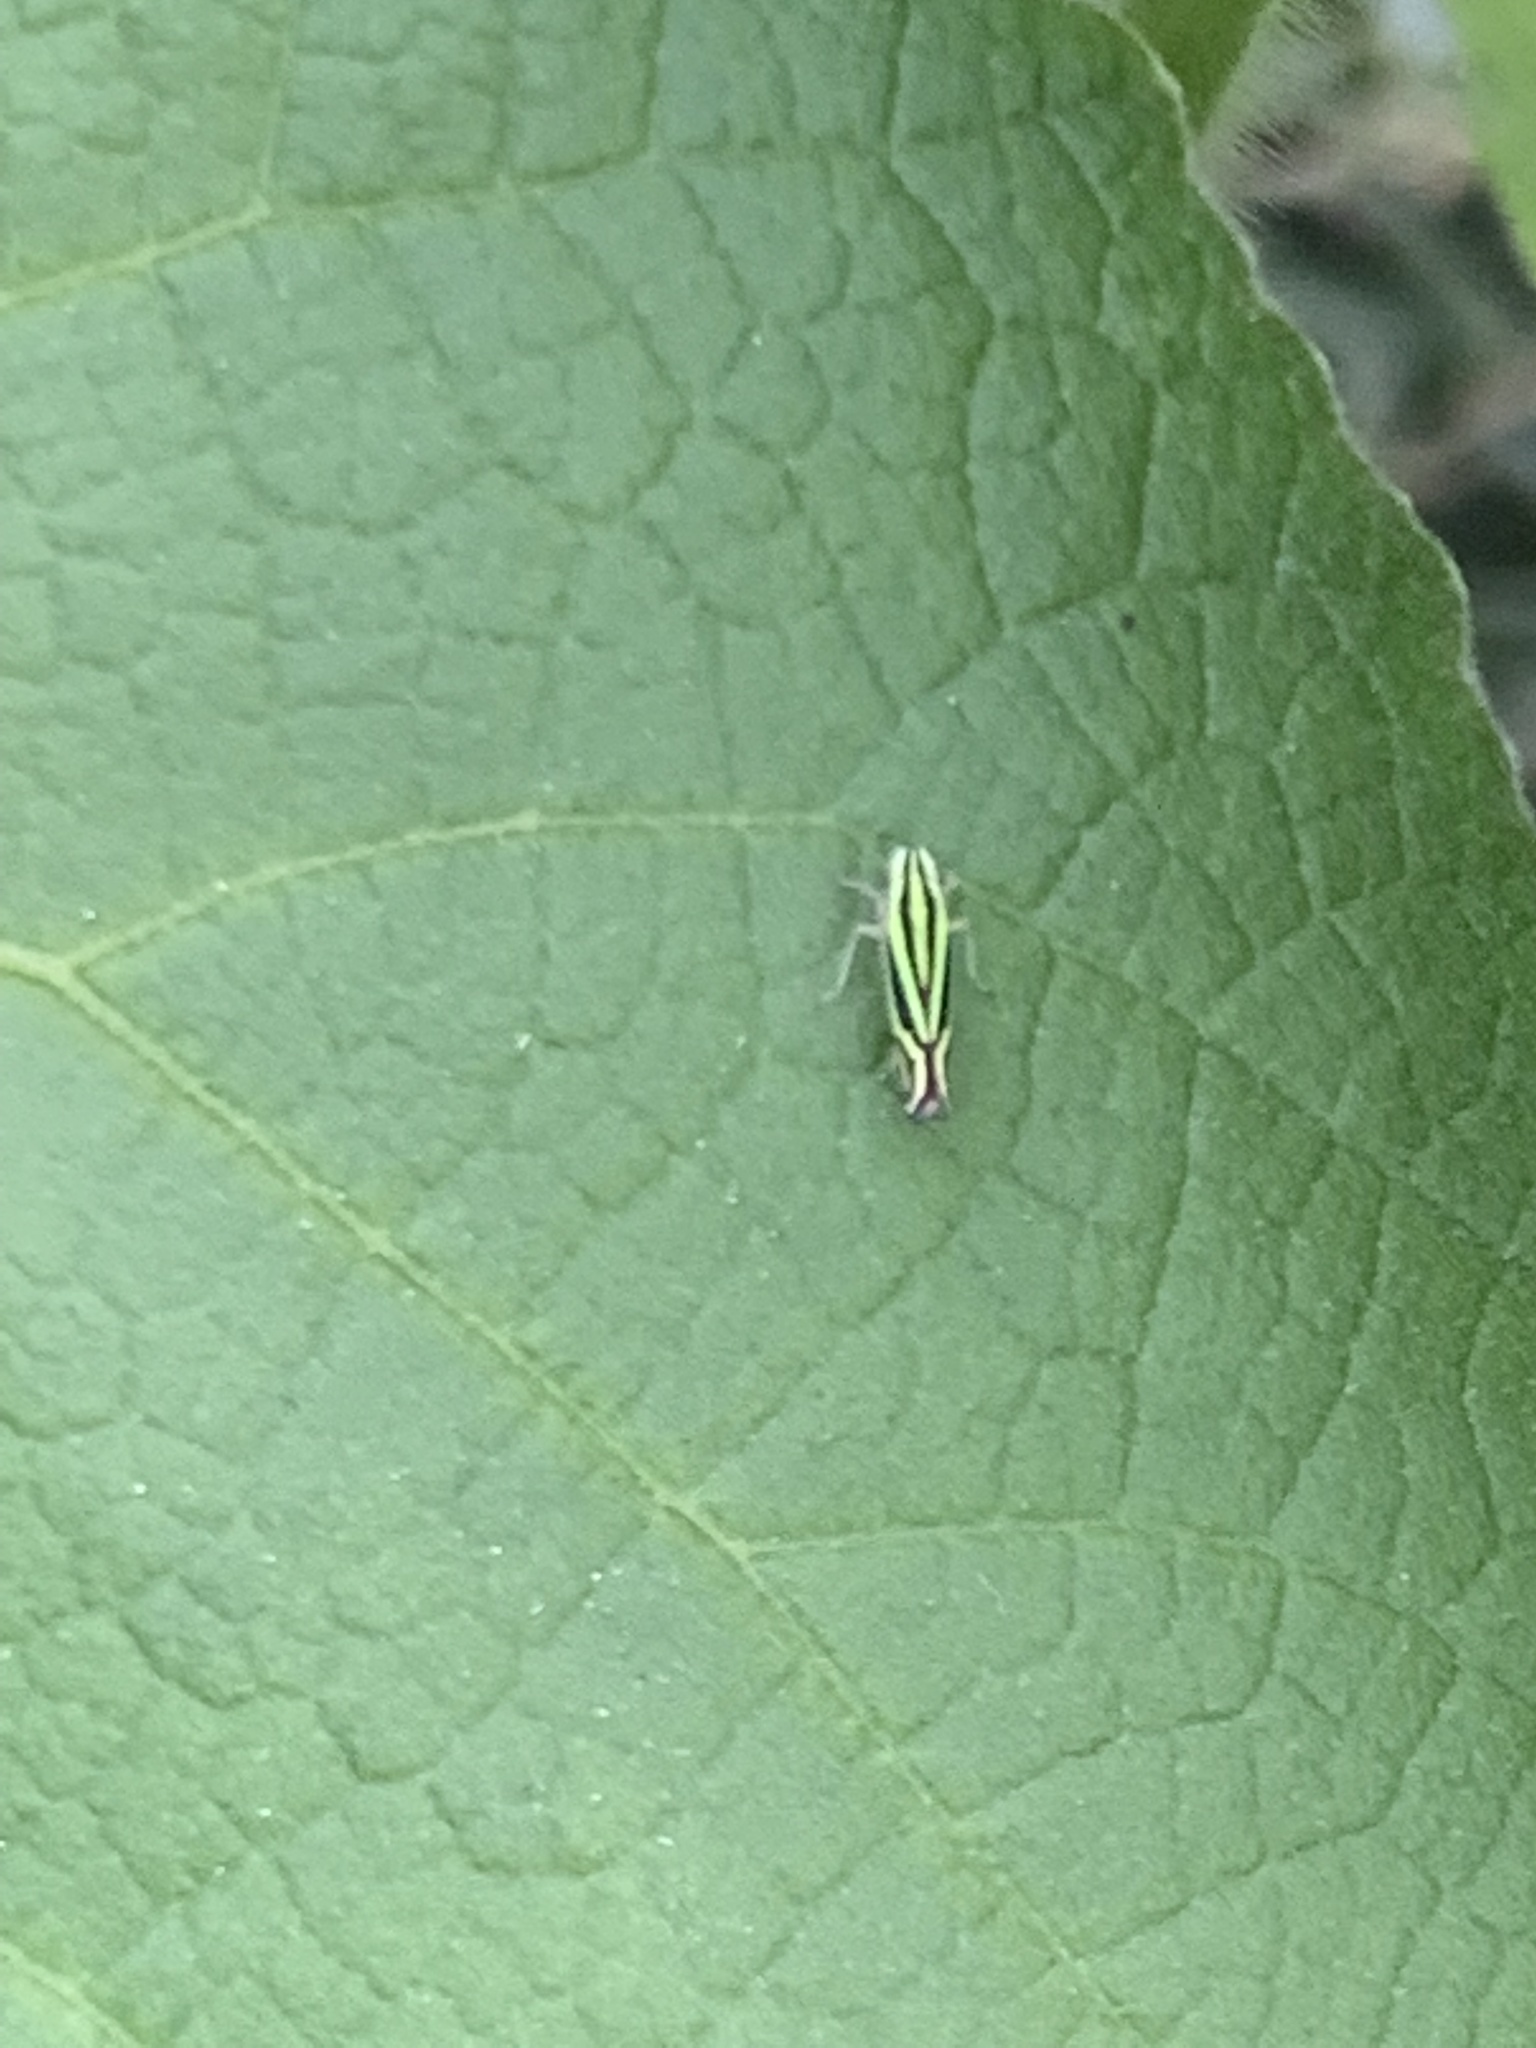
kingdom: Animalia
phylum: Arthropoda
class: Insecta
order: Hemiptera
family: Cicadellidae
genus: Sibovia
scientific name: Sibovia sagata
